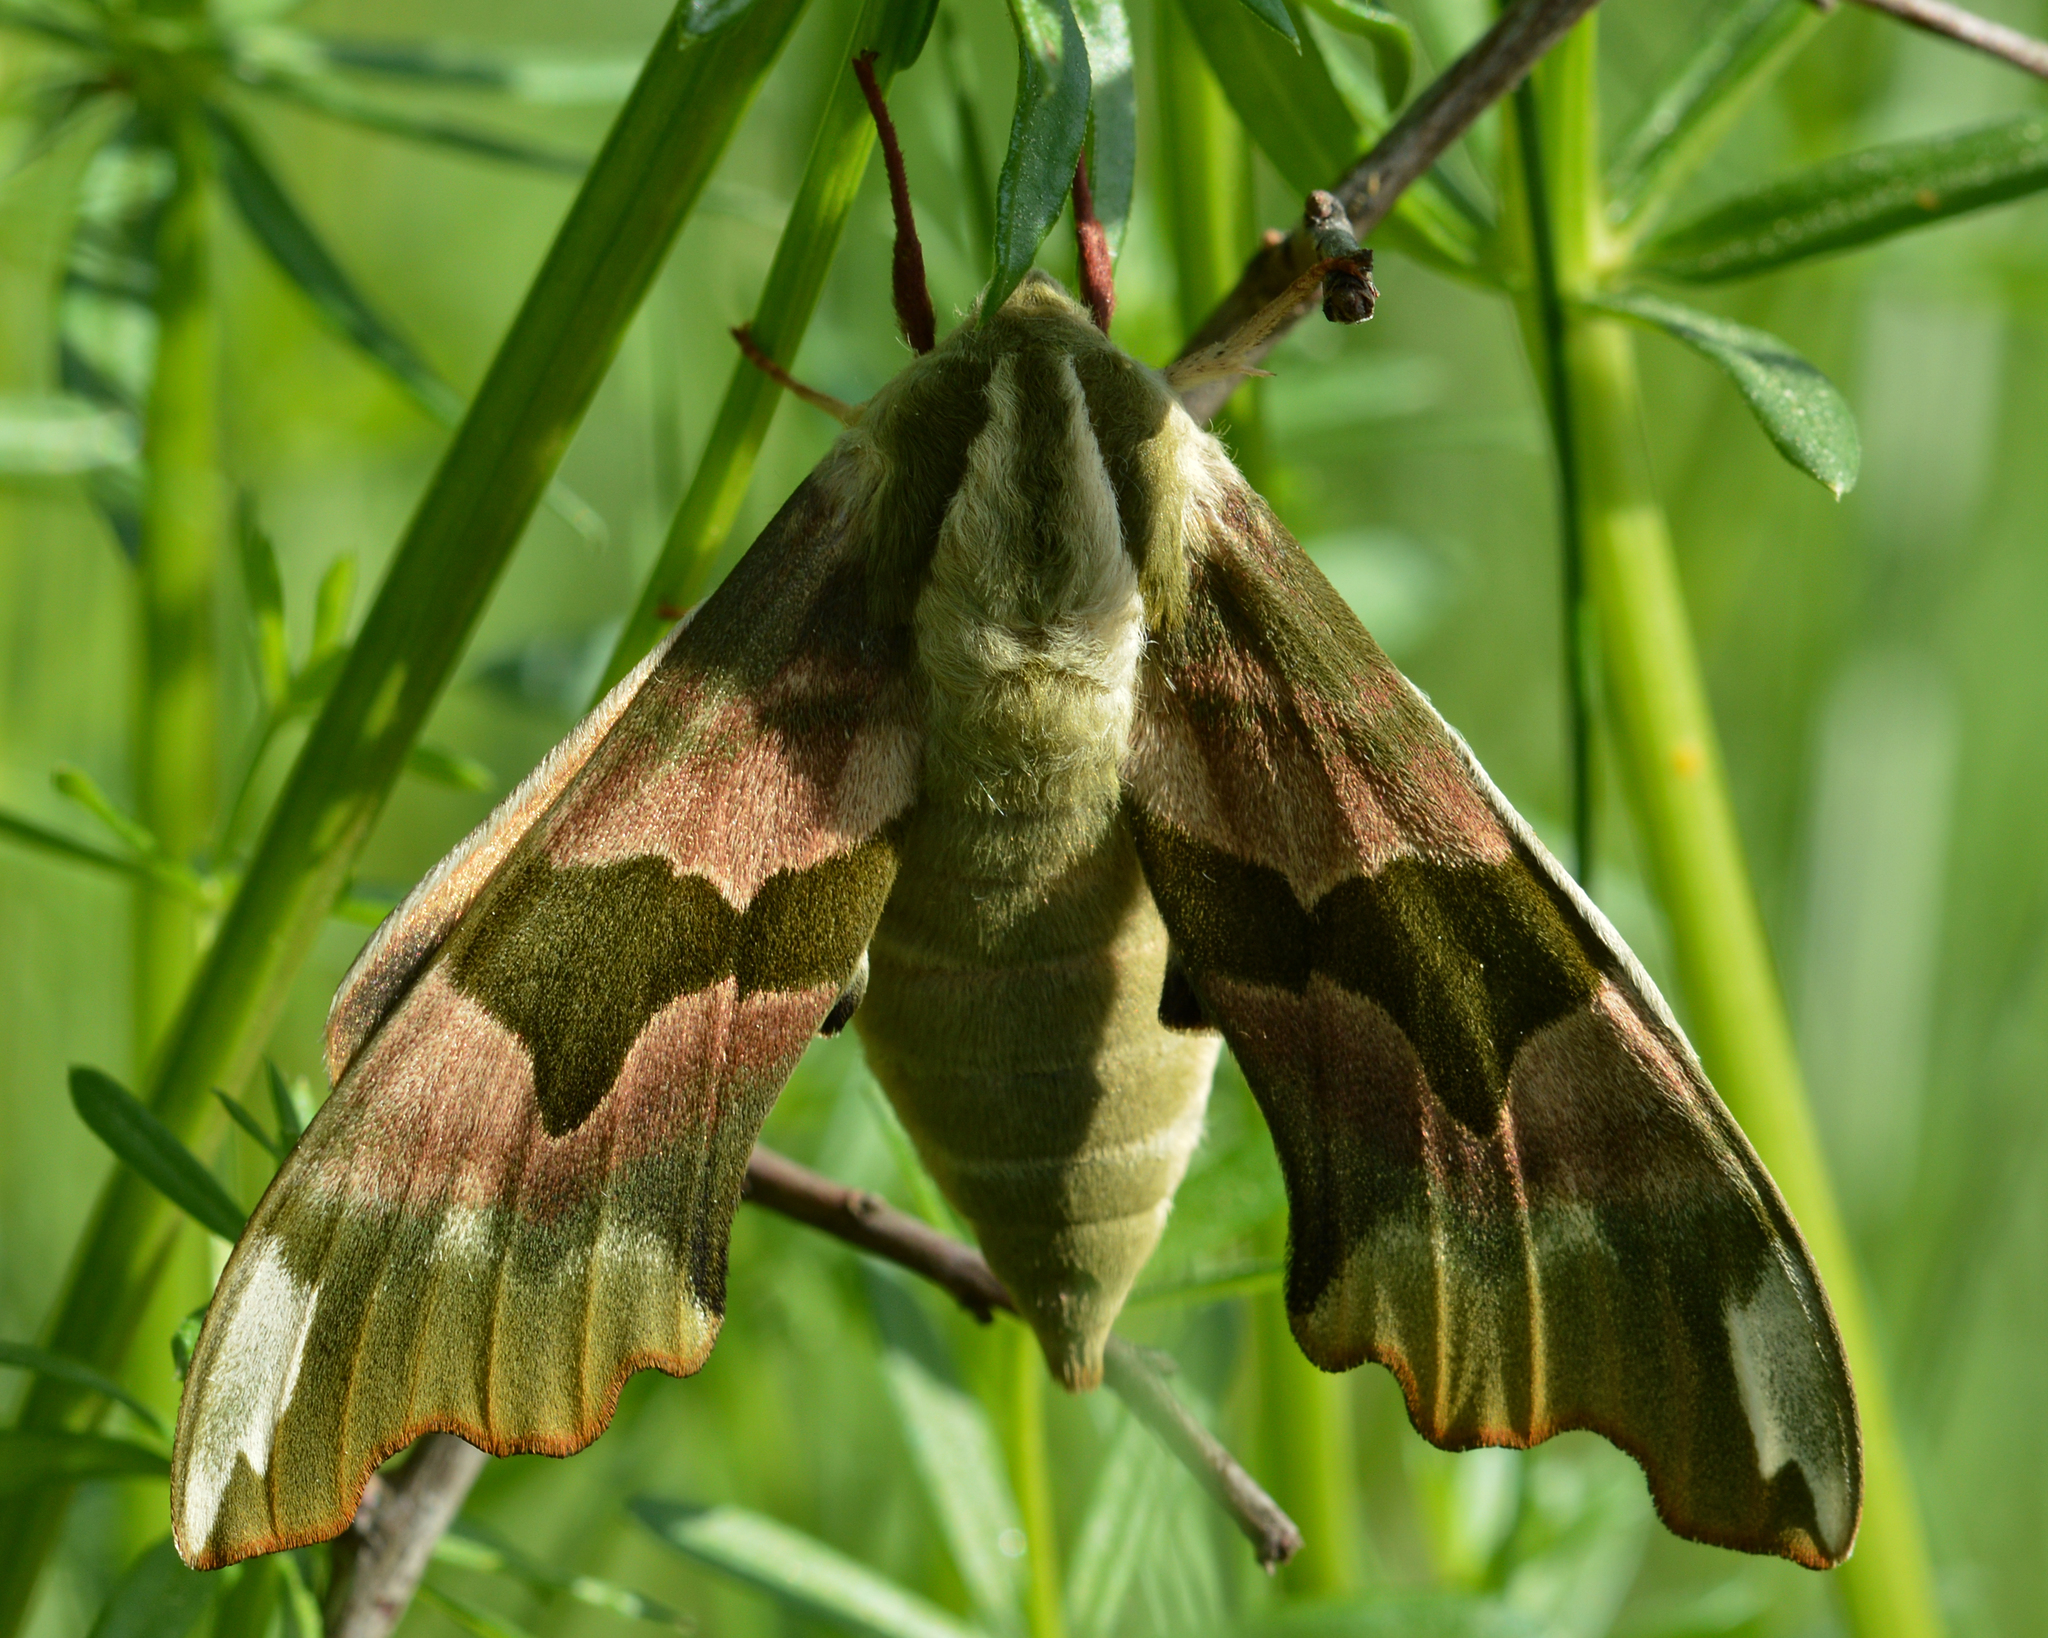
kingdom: Animalia
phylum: Arthropoda
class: Insecta
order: Lepidoptera
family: Sphingidae
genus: Mimas
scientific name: Mimas tiliae
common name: Lime hawk-moth
